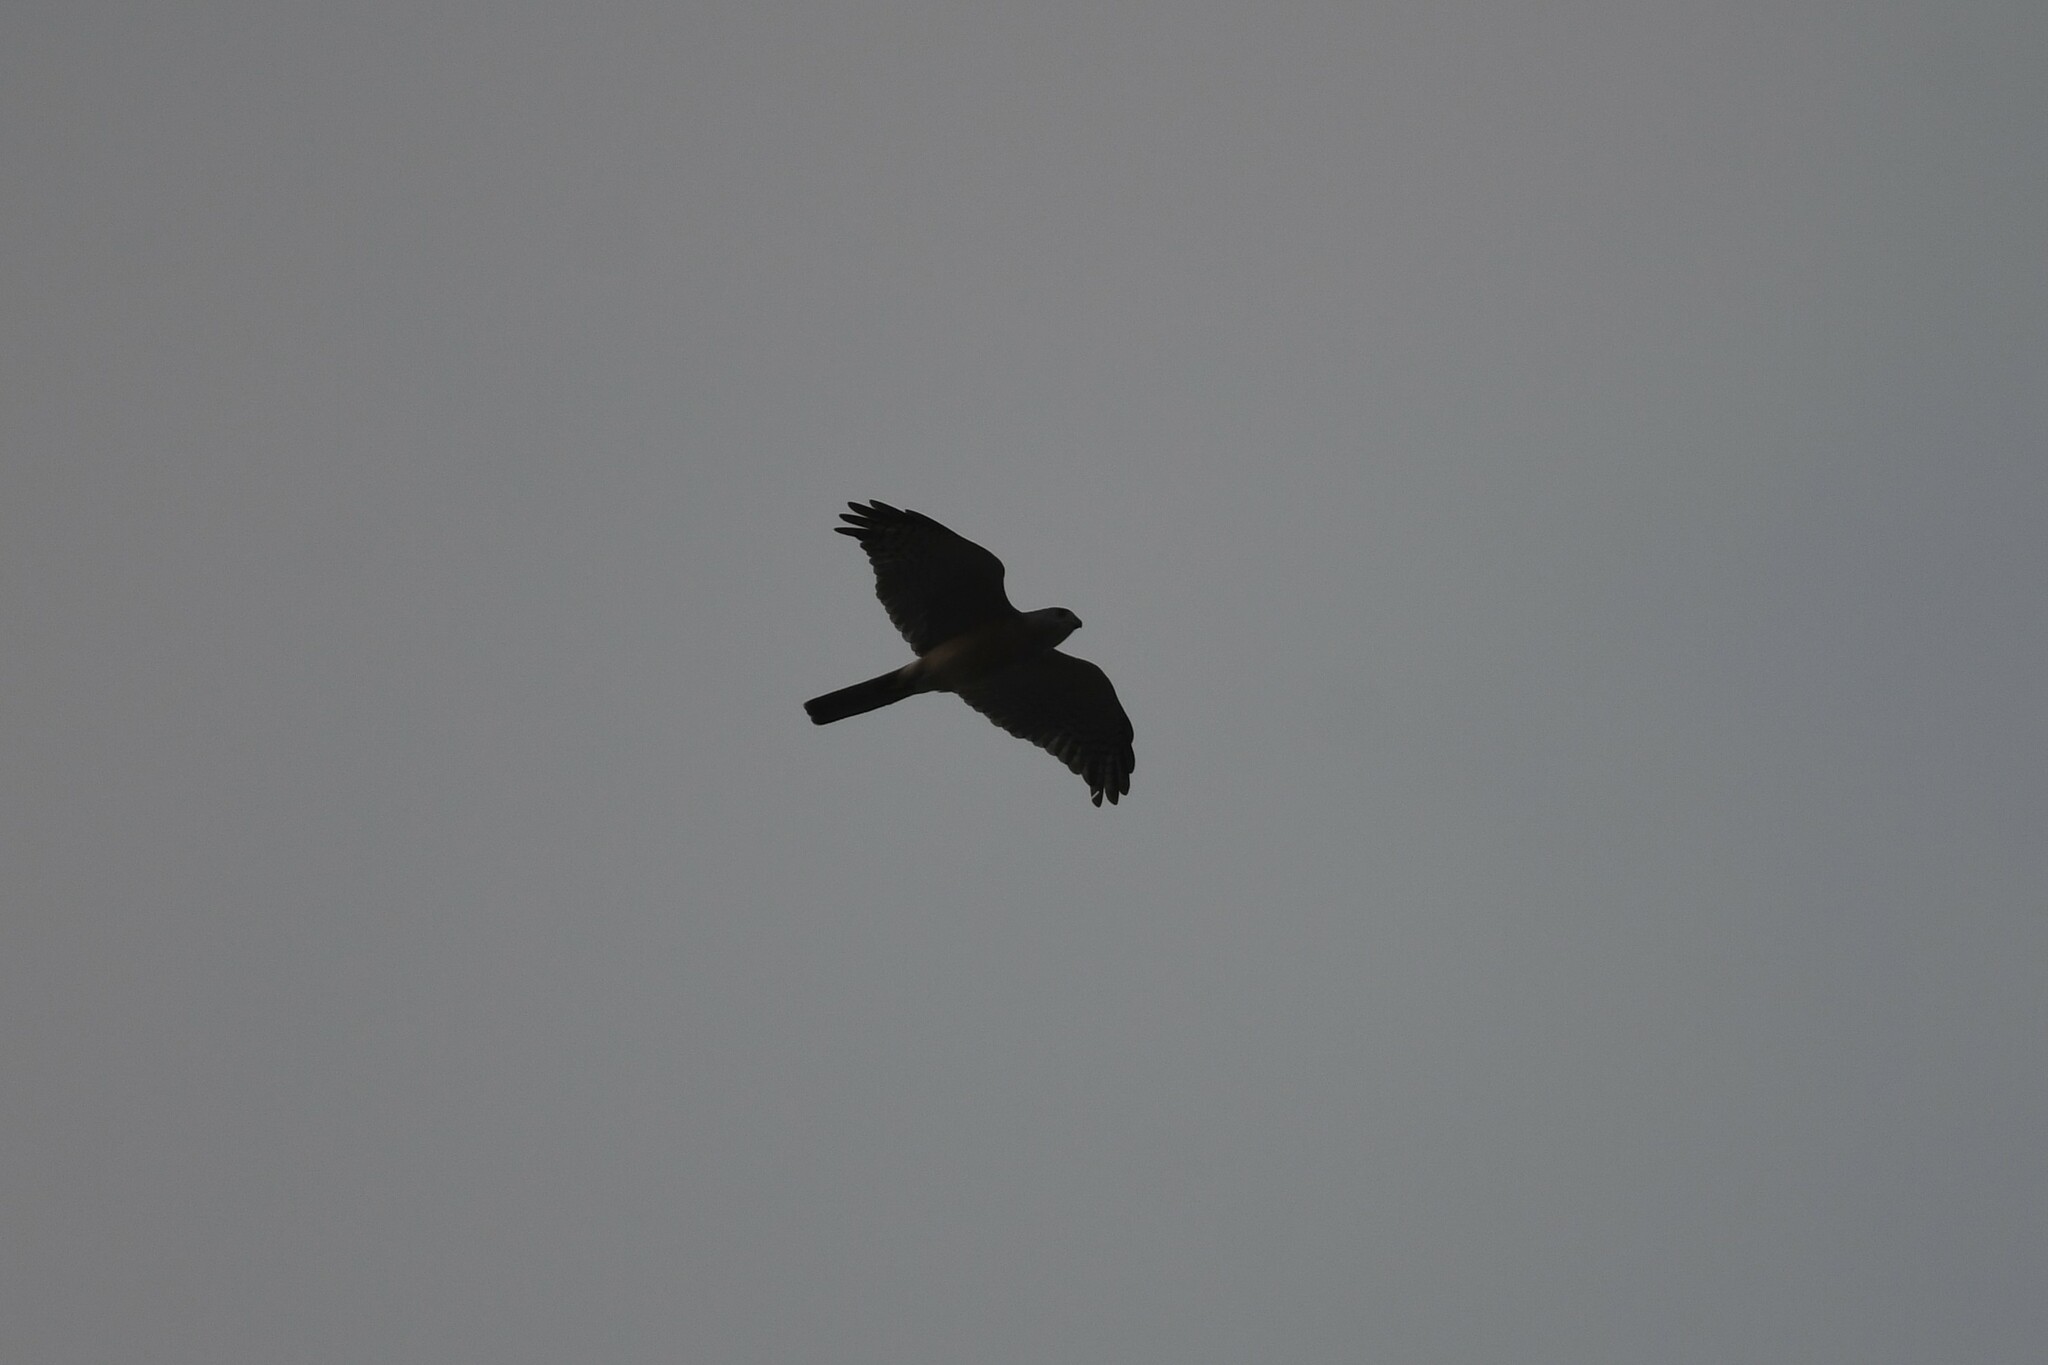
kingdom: Animalia
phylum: Chordata
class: Aves
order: Accipitriformes
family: Accipitridae
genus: Accipiter
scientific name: Accipiter badius
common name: Shikra
